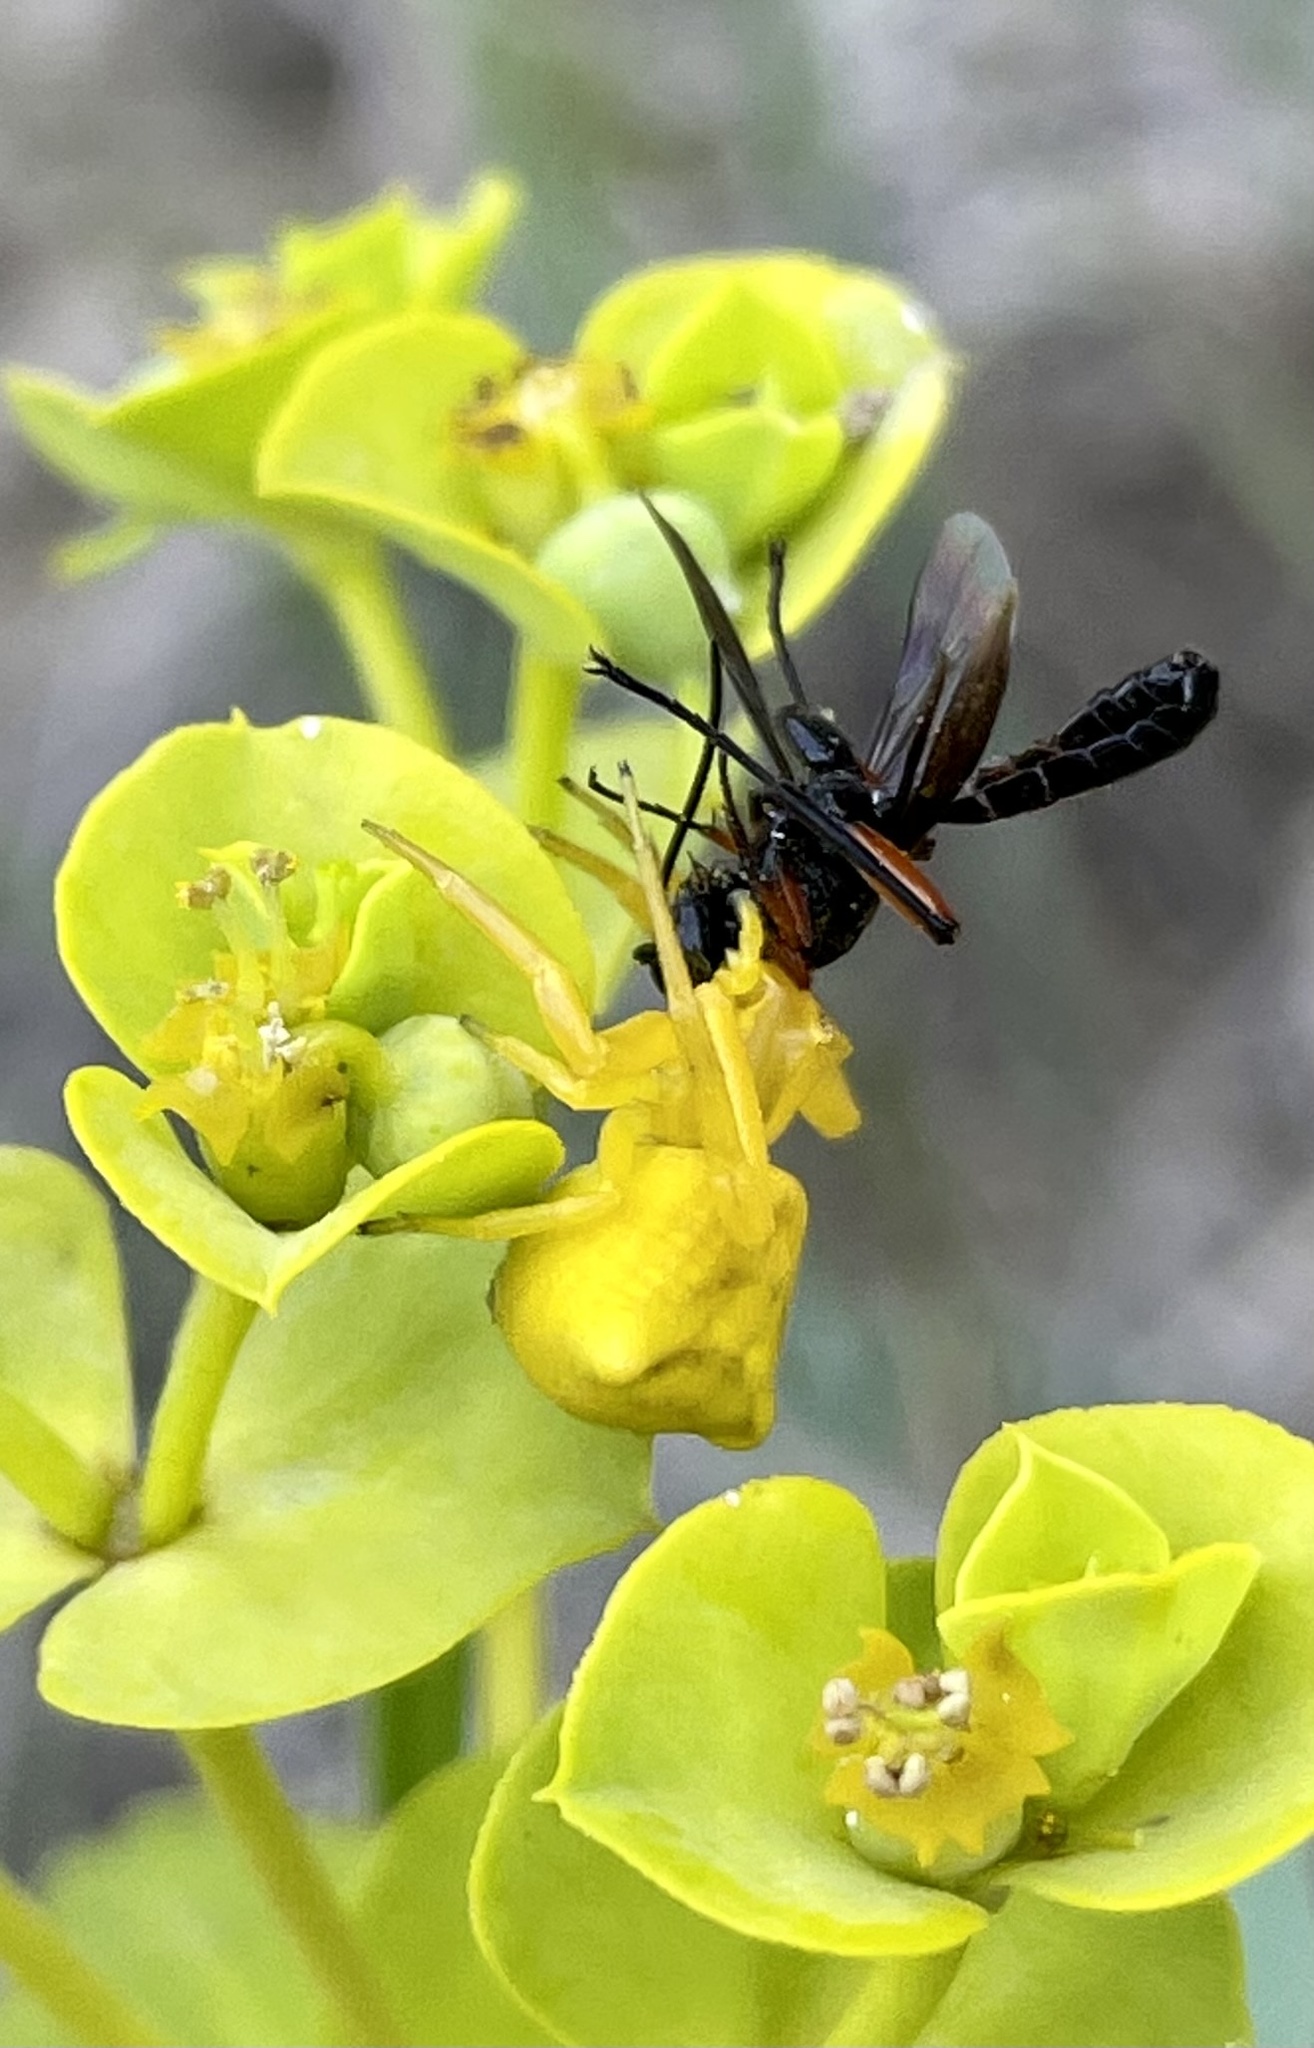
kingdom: Animalia
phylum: Arthropoda
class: Arachnida
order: Araneae
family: Thomisidae
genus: Thomisus
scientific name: Thomisus onustus
